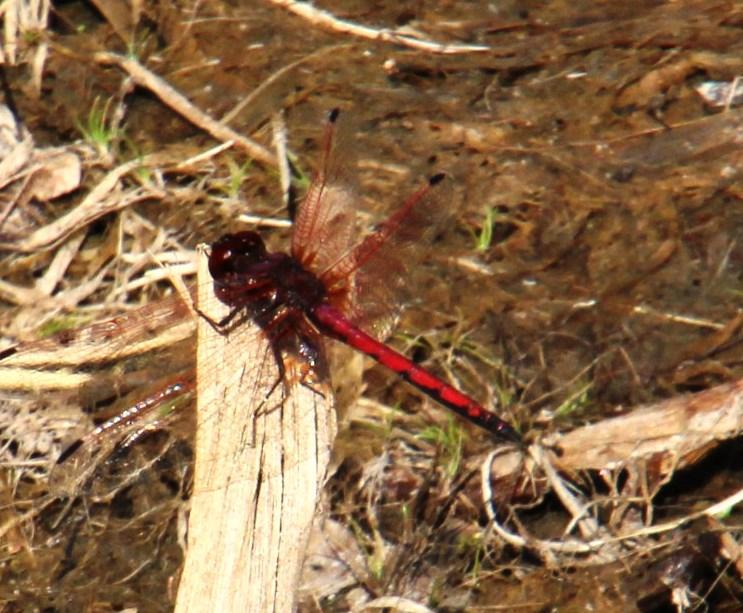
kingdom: Animalia
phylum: Arthropoda
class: Insecta
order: Odonata
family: Libellulidae
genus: Trithemis
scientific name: Trithemis arteriosa
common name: Red-veined dropwing
